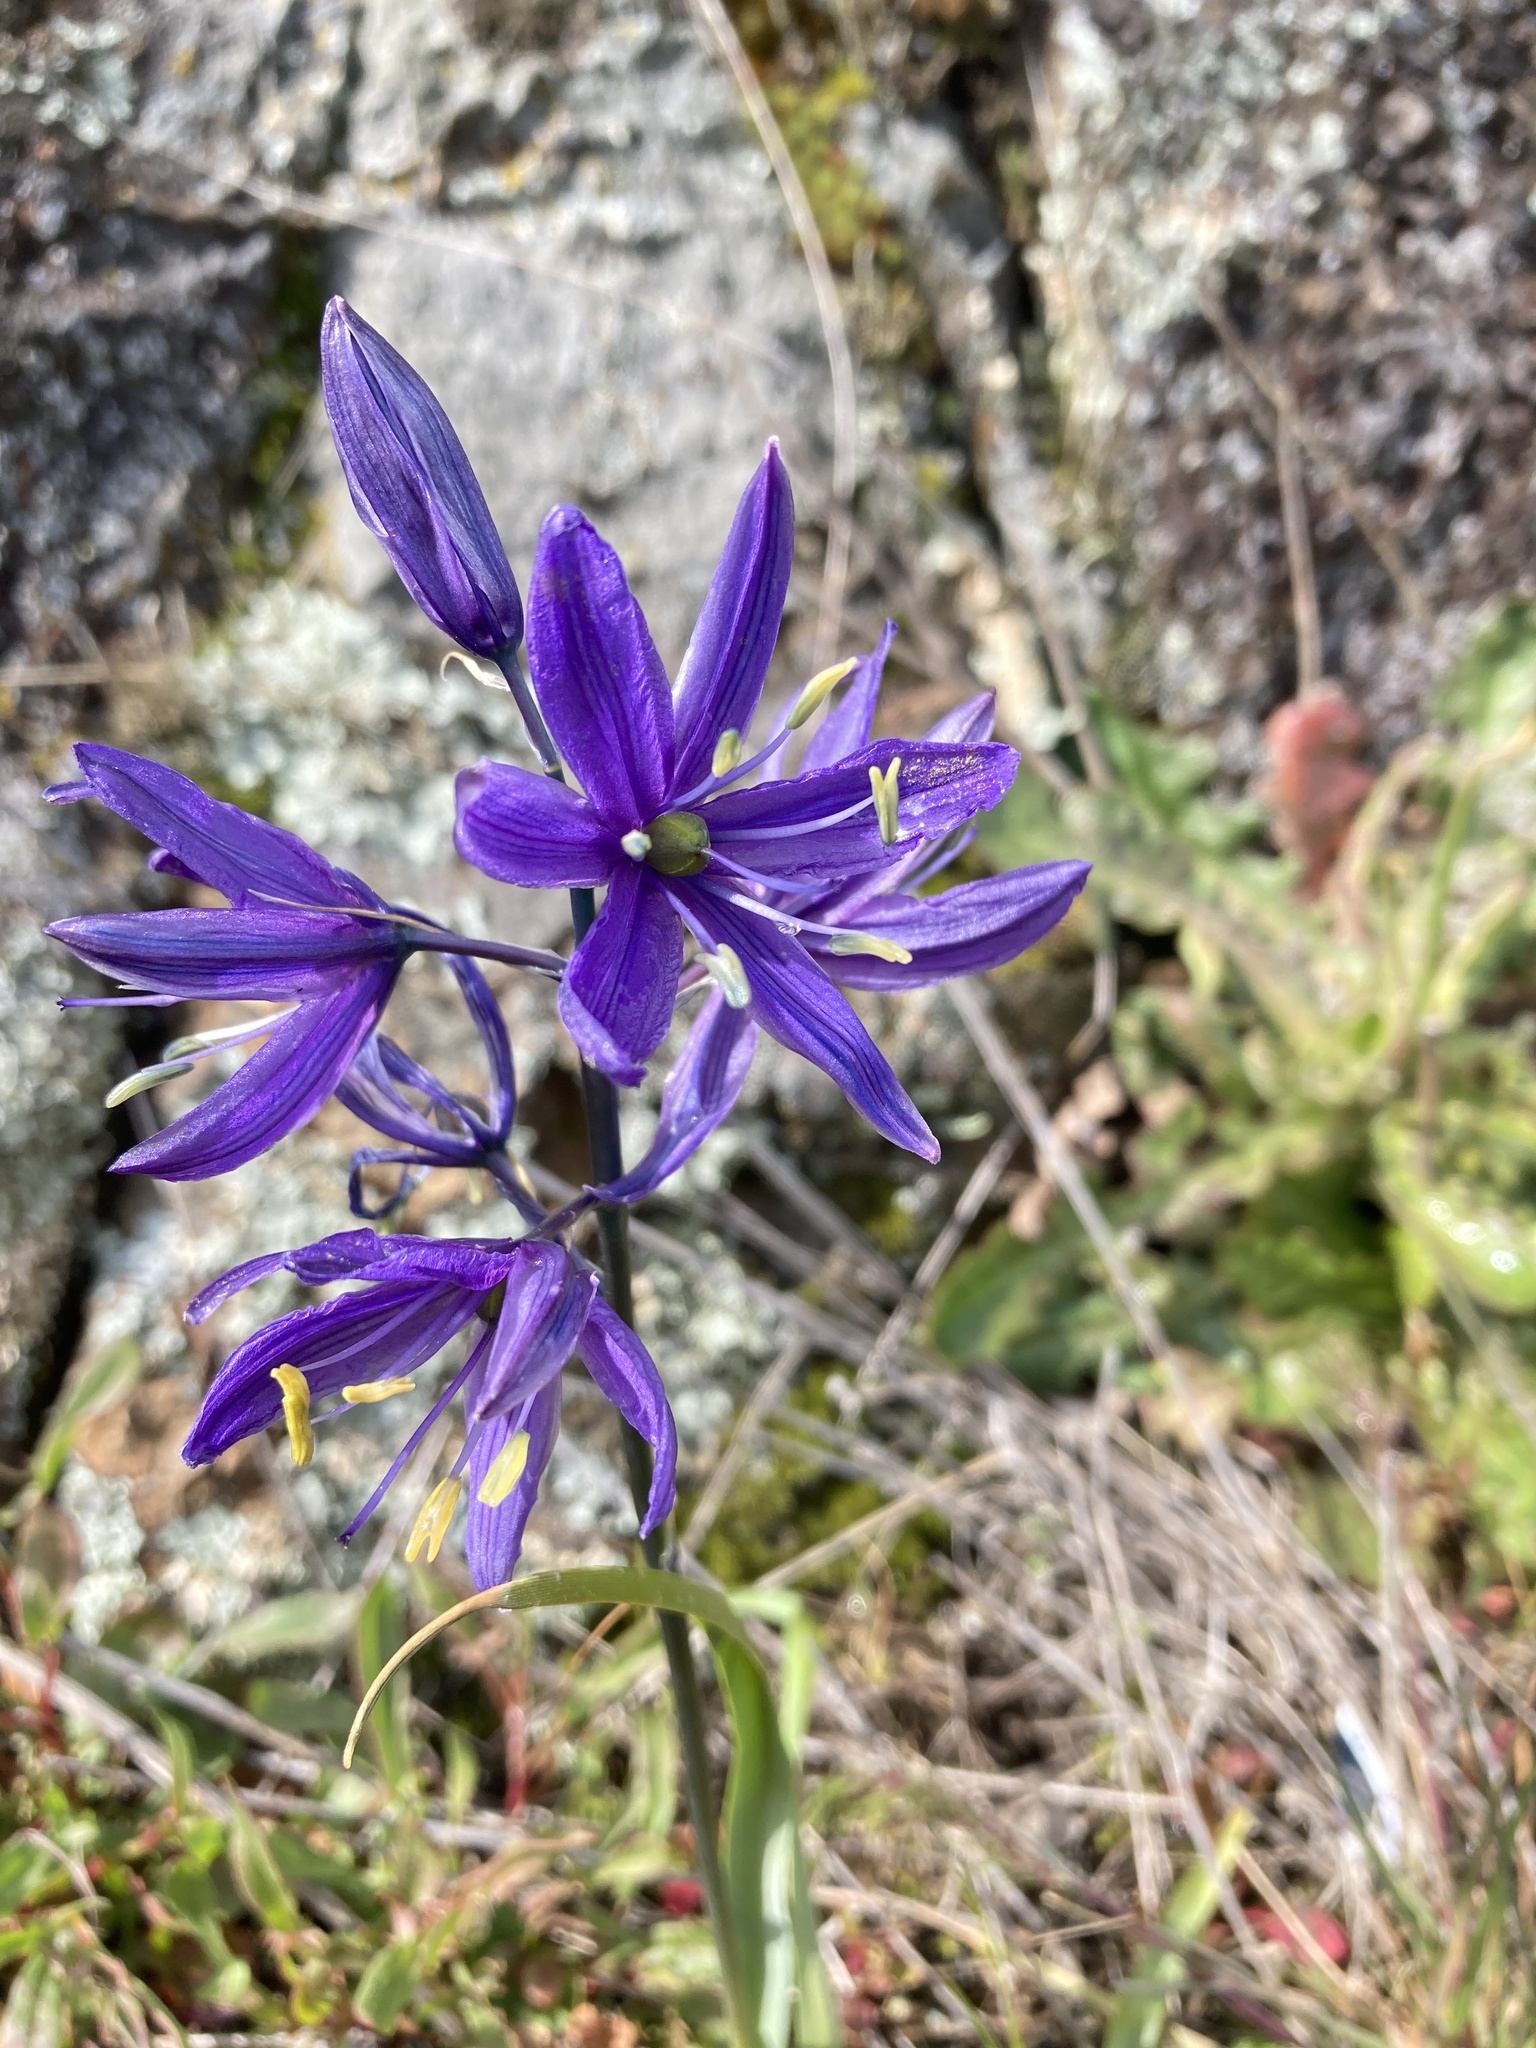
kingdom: Plantae
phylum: Tracheophyta
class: Liliopsida
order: Asparagales
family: Asparagaceae
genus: Camassia
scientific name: Camassia quamash
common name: Common camas
